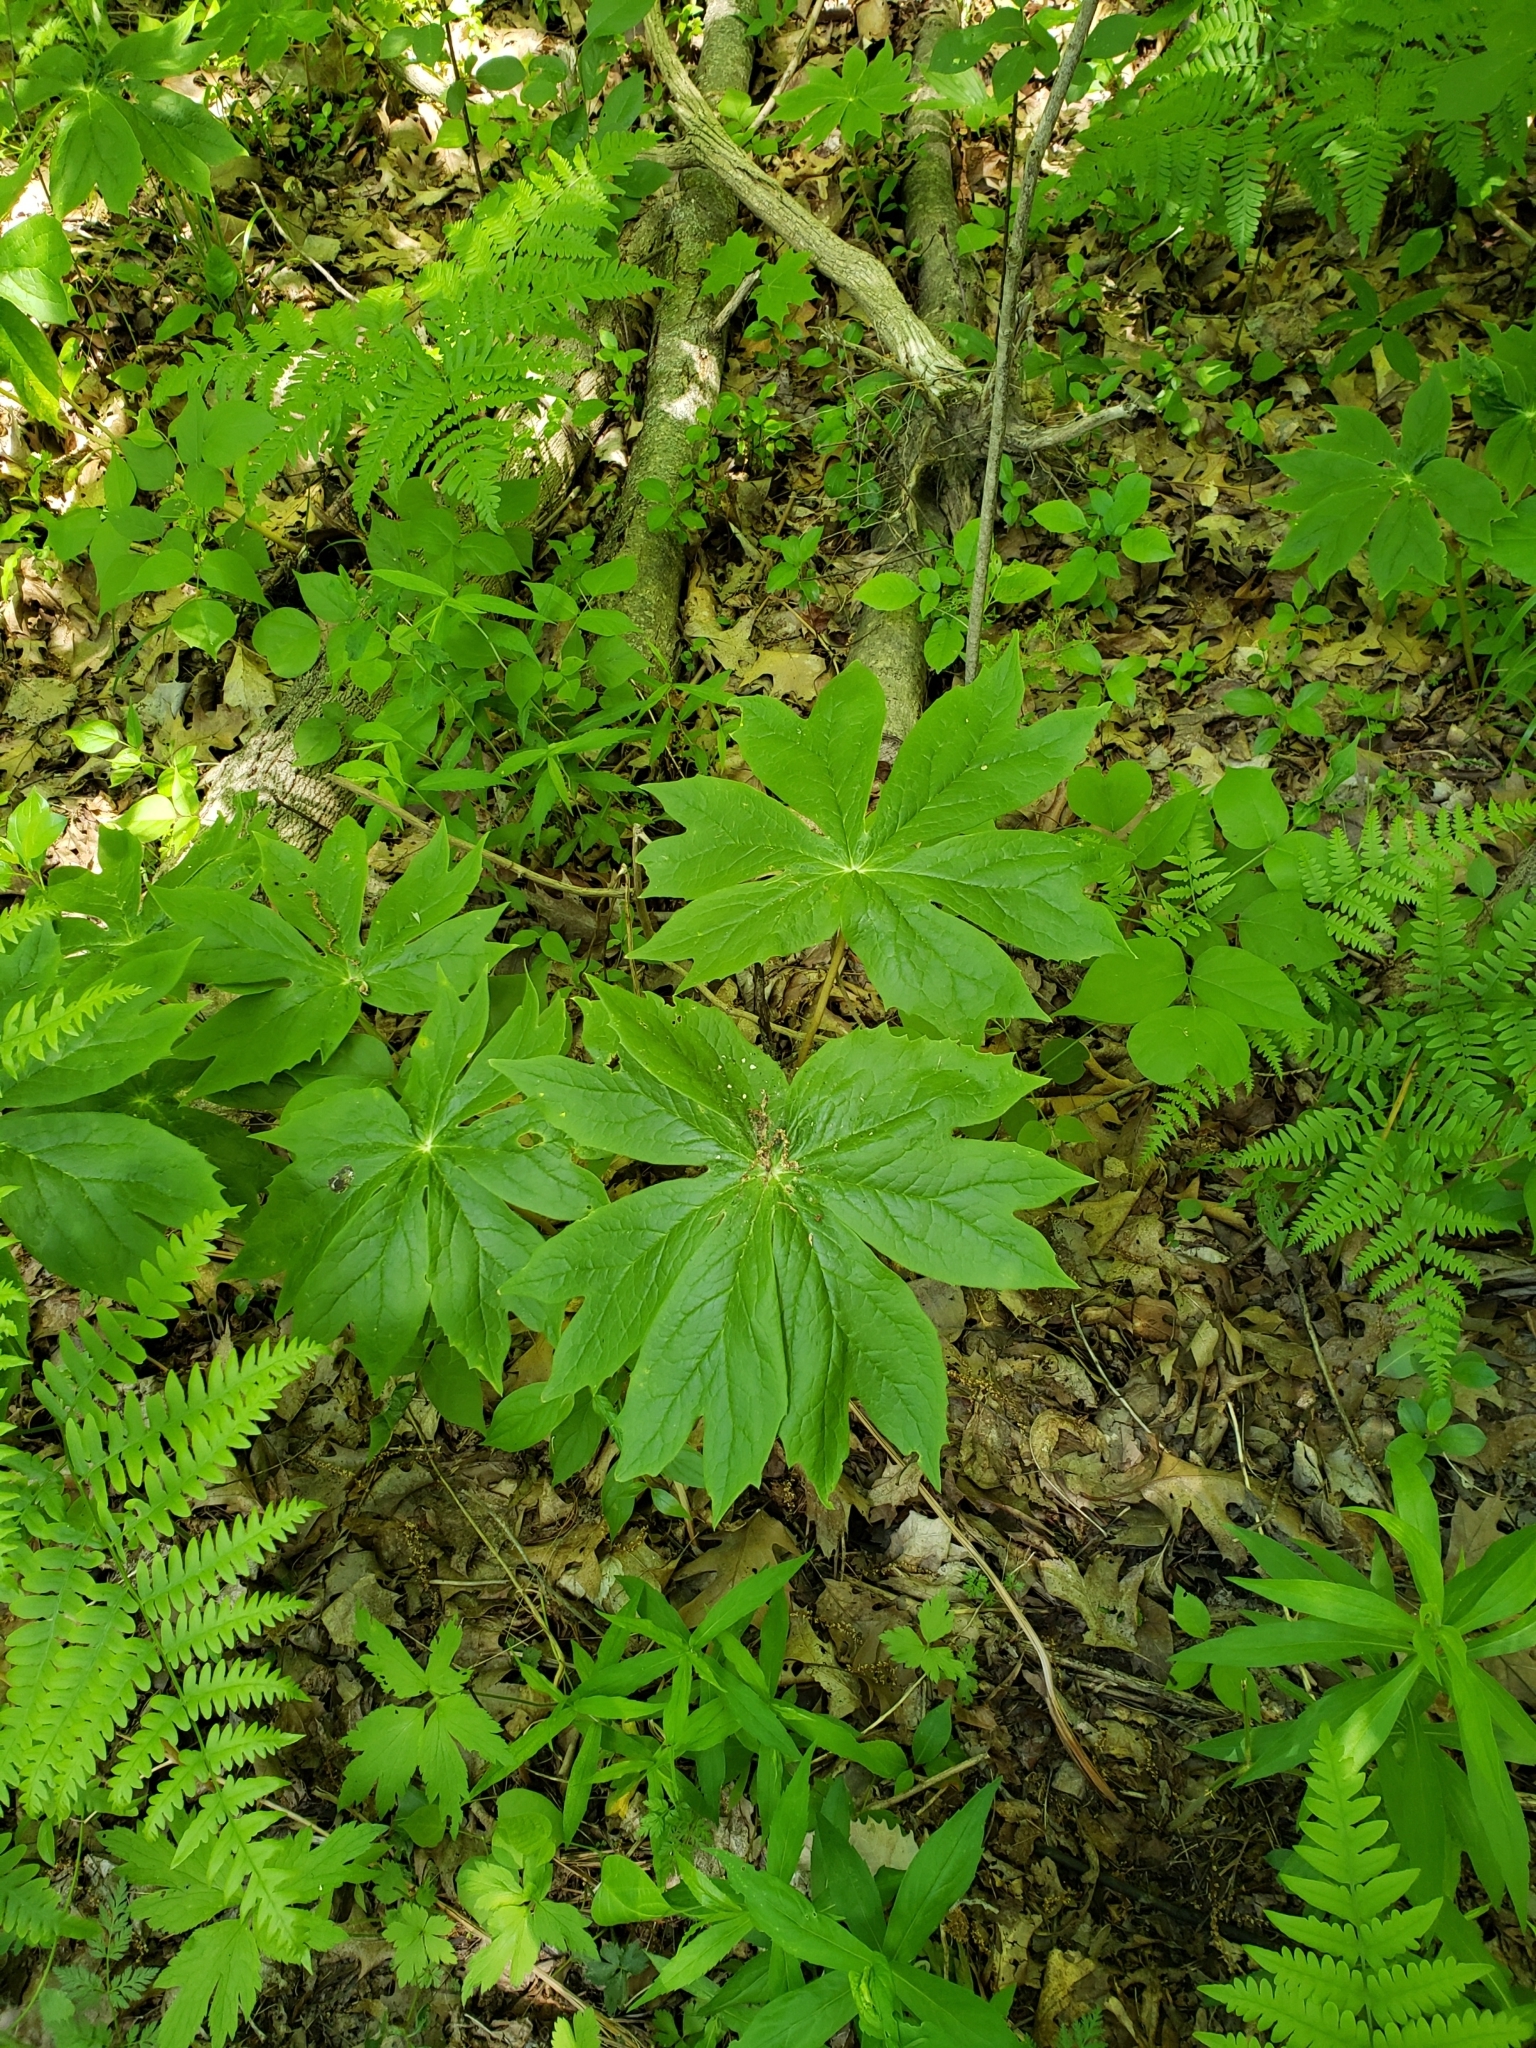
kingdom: Plantae
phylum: Tracheophyta
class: Magnoliopsida
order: Ranunculales
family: Berberidaceae
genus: Podophyllum
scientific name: Podophyllum peltatum
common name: Wild mandrake
